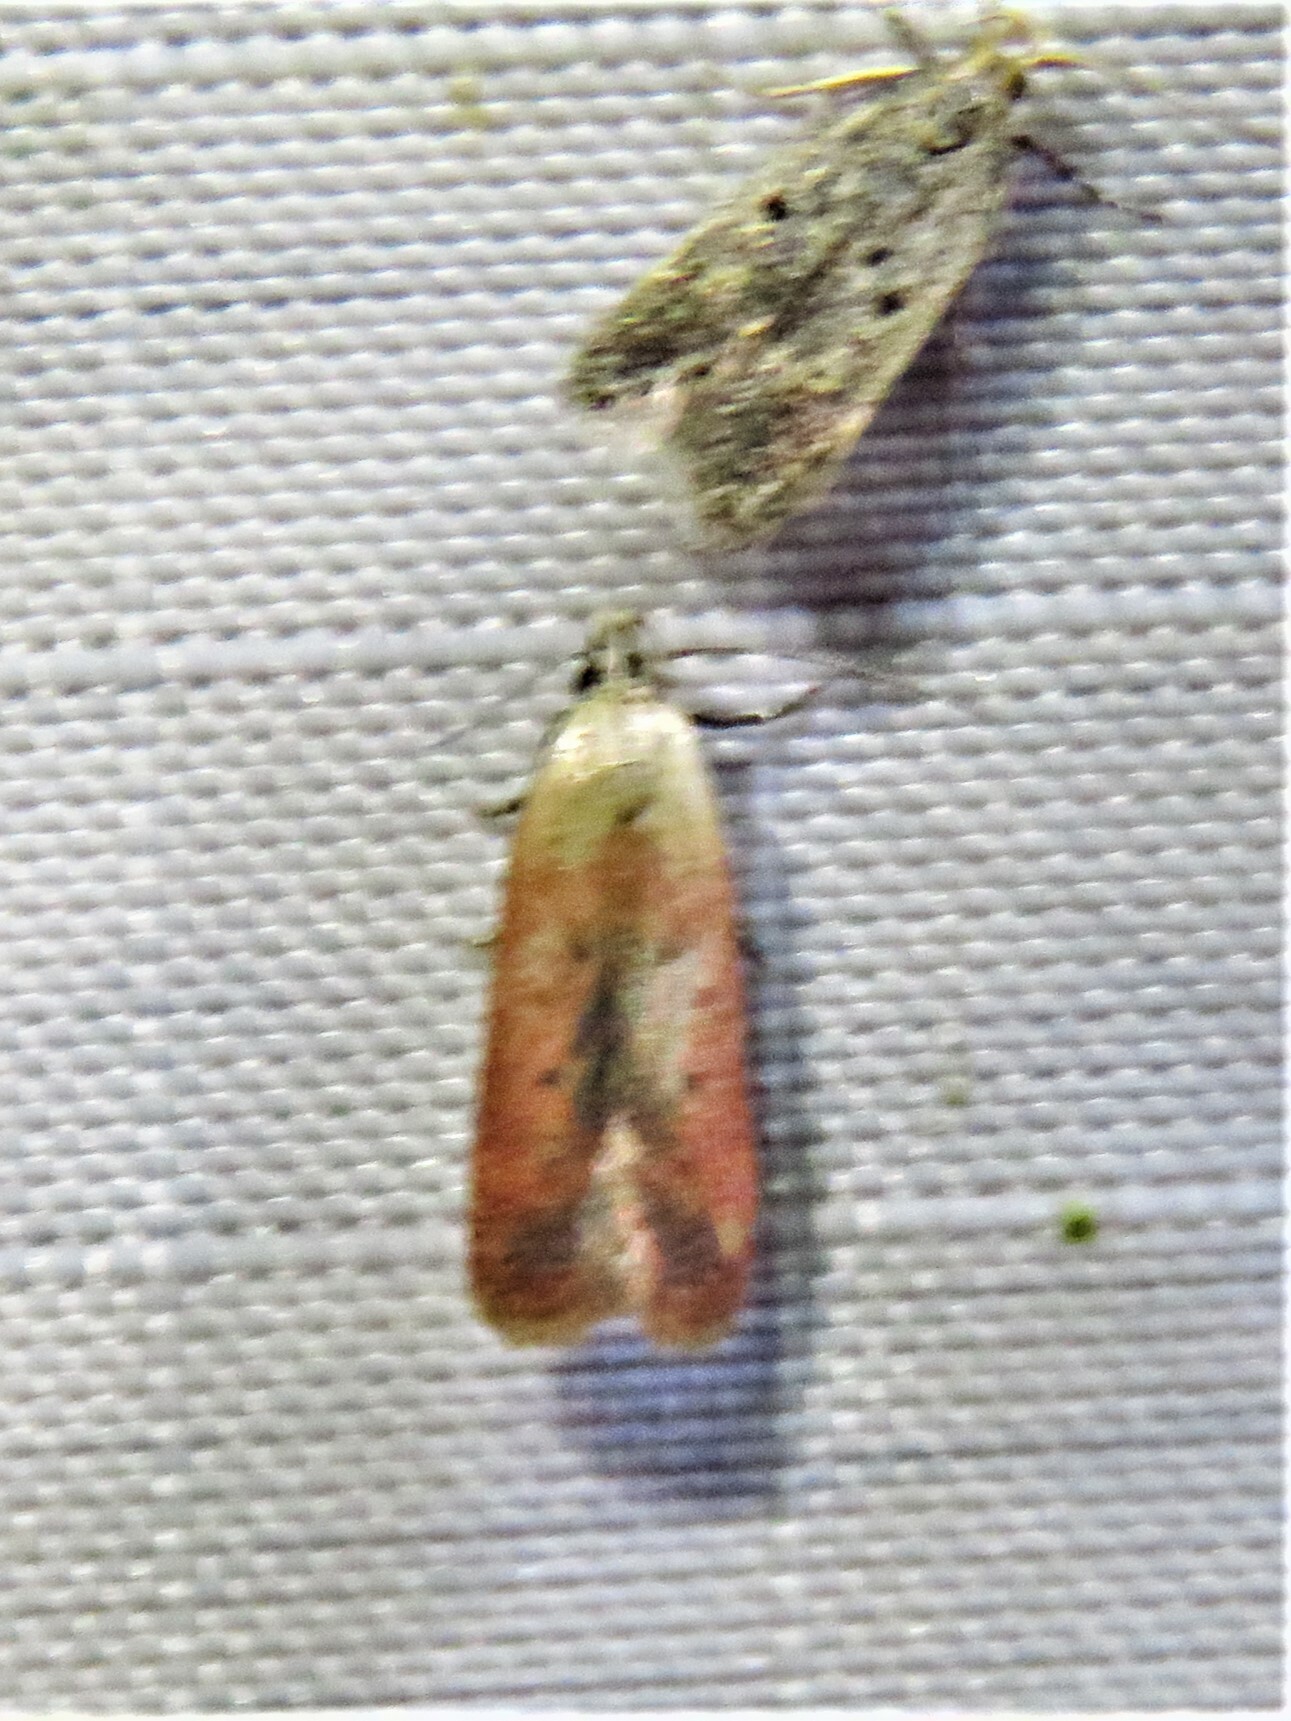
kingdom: Animalia
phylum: Arthropoda
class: Insecta
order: Lepidoptera
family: Gelechiidae
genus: Anacampsis
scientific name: Anacampsis fullonella
